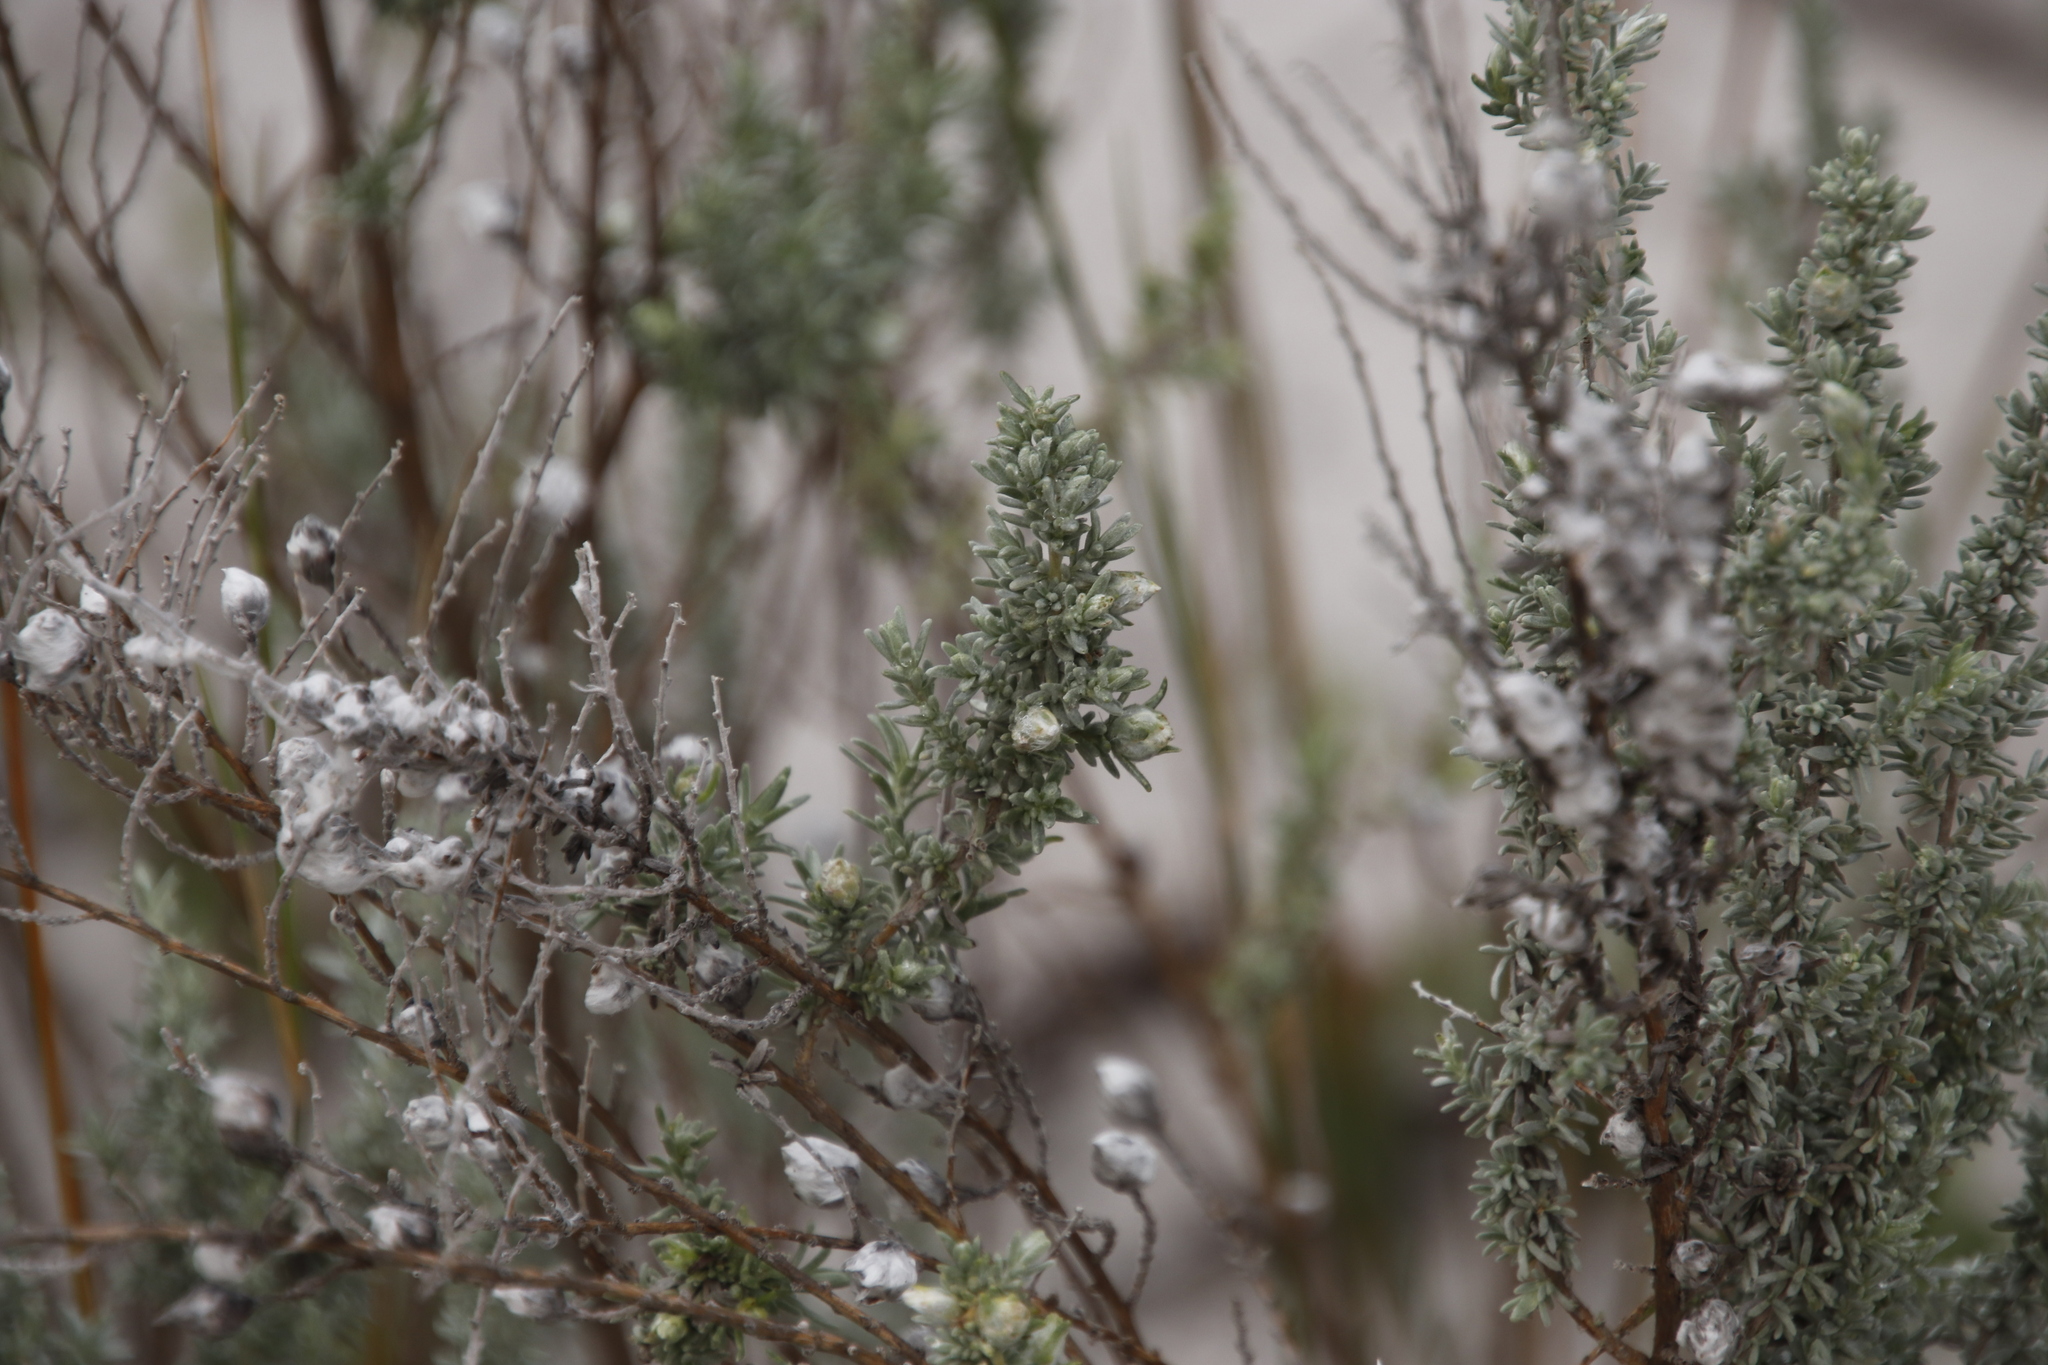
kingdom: Plantae
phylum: Tracheophyta
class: Magnoliopsida
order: Asterales
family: Asteraceae
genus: Eriocephalus
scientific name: Eriocephalus racemosus
